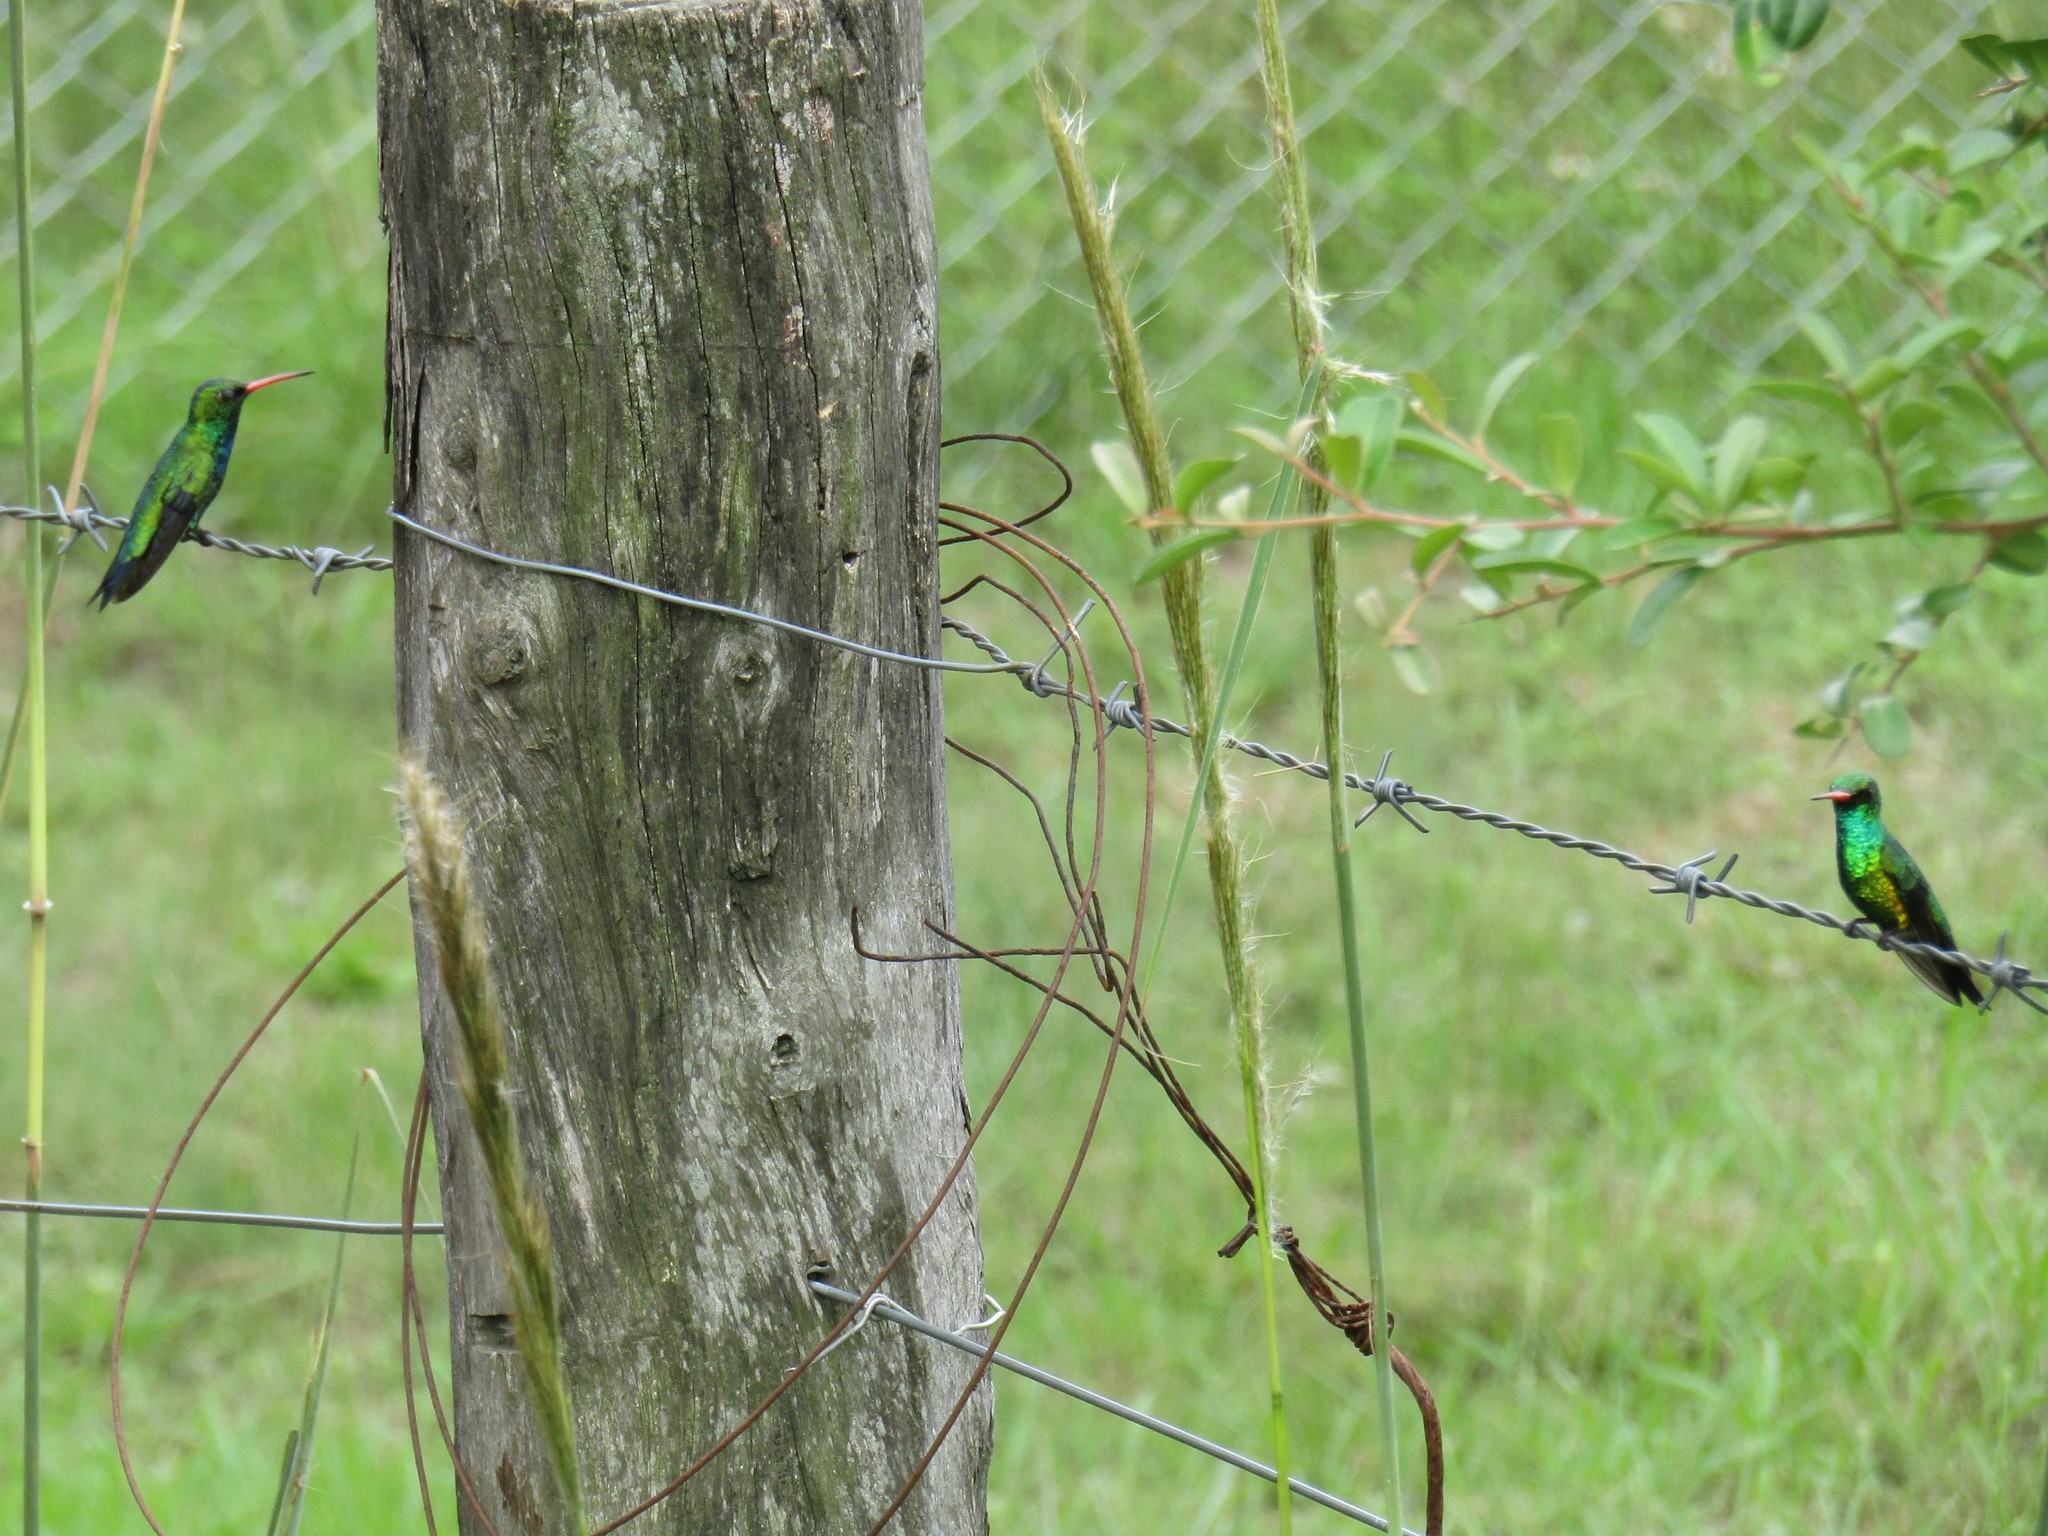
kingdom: Animalia
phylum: Chordata
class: Aves
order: Apodiformes
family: Trochilidae
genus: Chlorostilbon
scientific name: Chlorostilbon lucidus
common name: Glittering-bellied emerald
